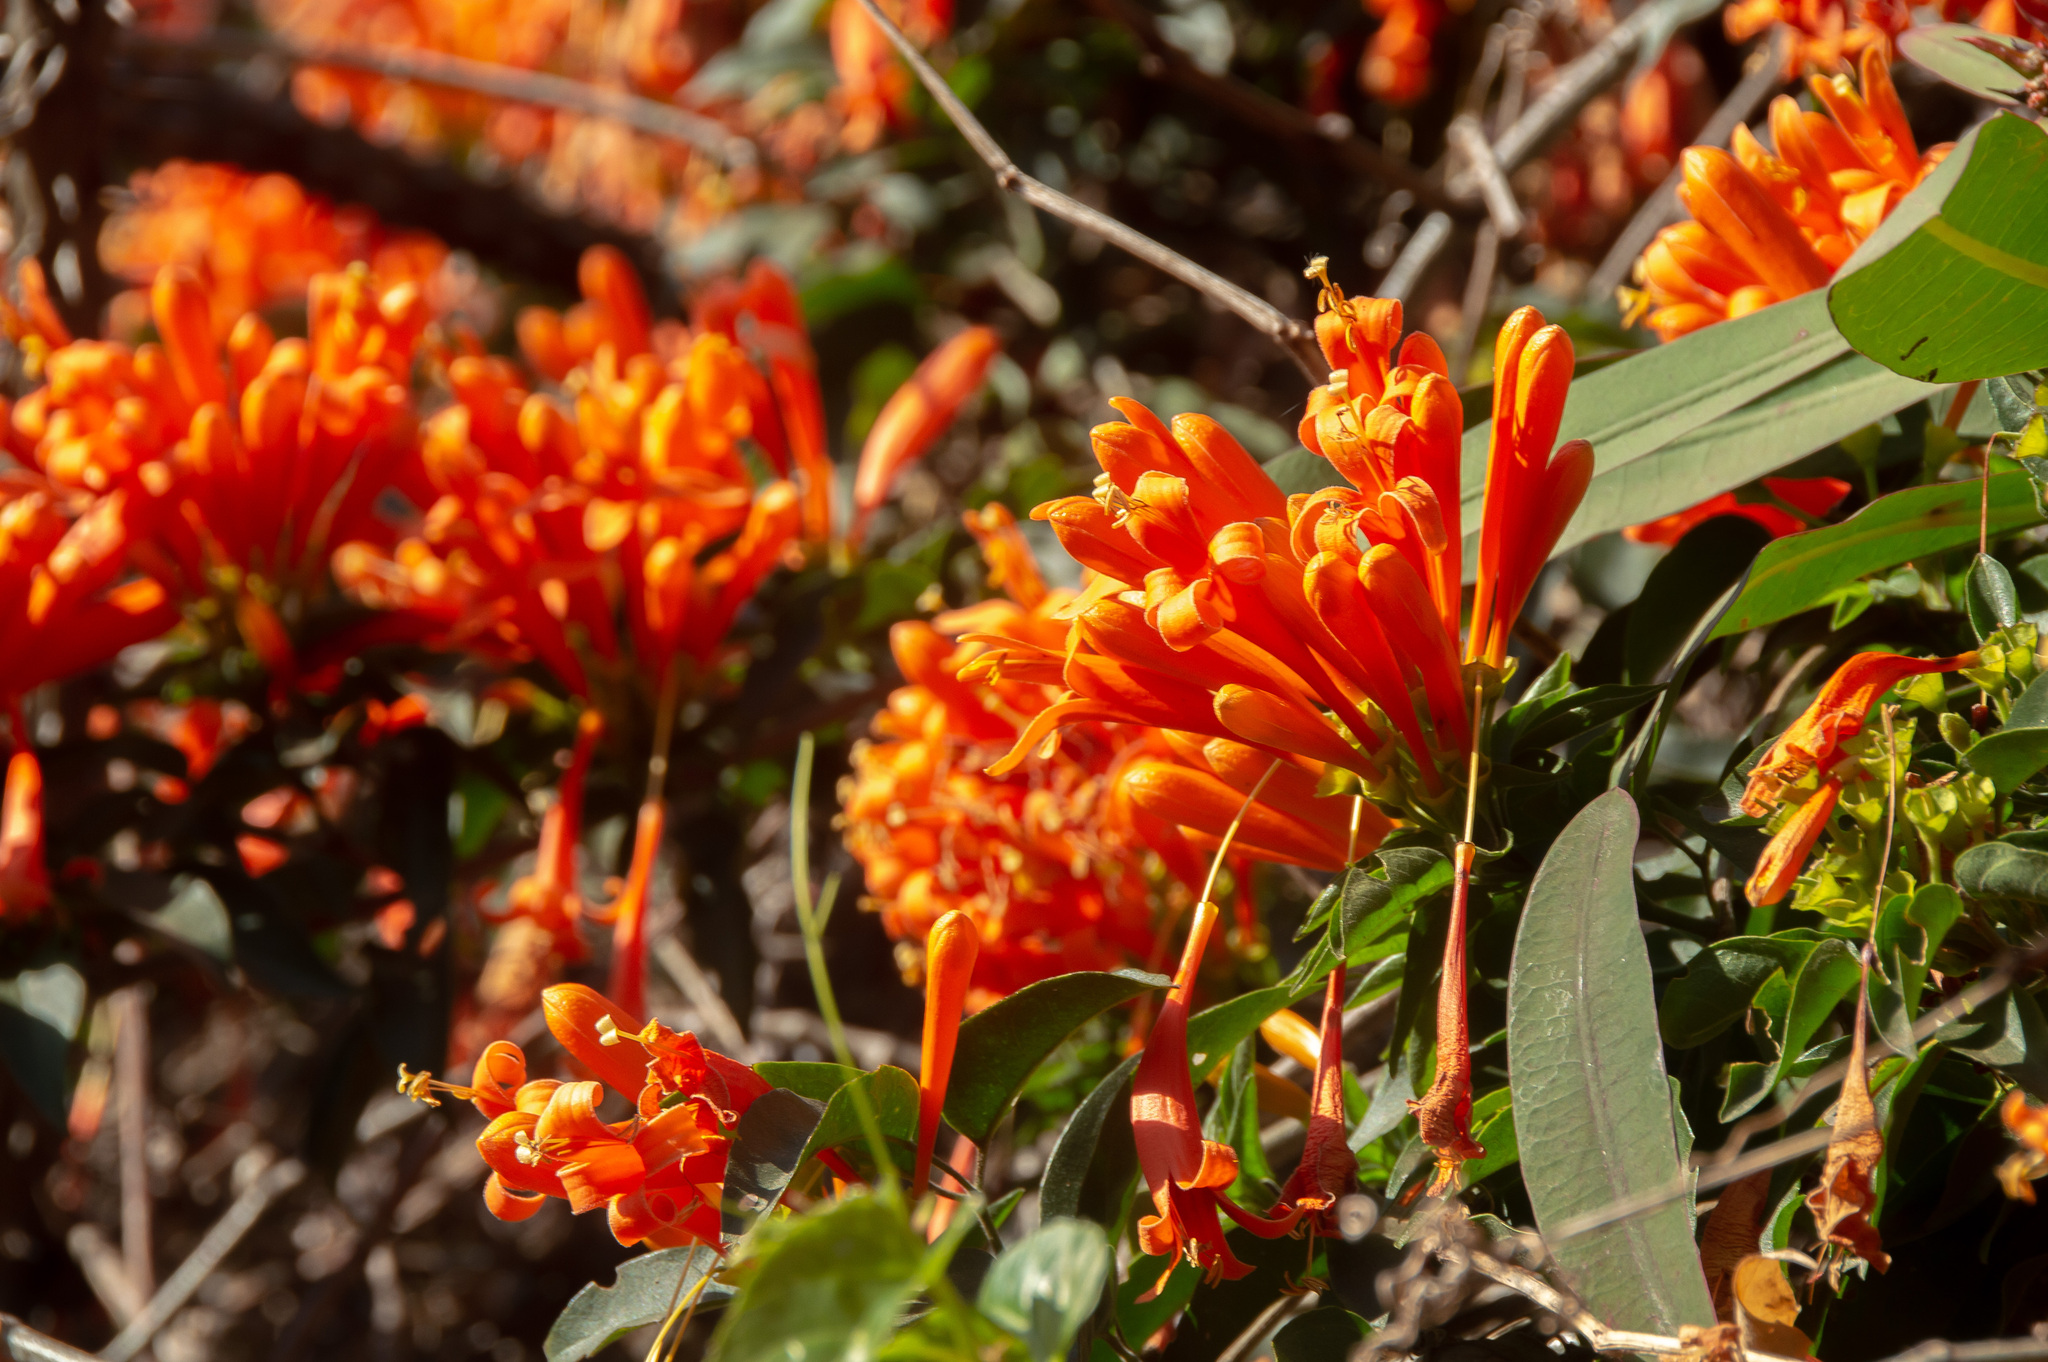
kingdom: Plantae
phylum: Tracheophyta
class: Magnoliopsida
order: Lamiales
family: Bignoniaceae
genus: Pyrostegia
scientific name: Pyrostegia venusta
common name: Flamevine
